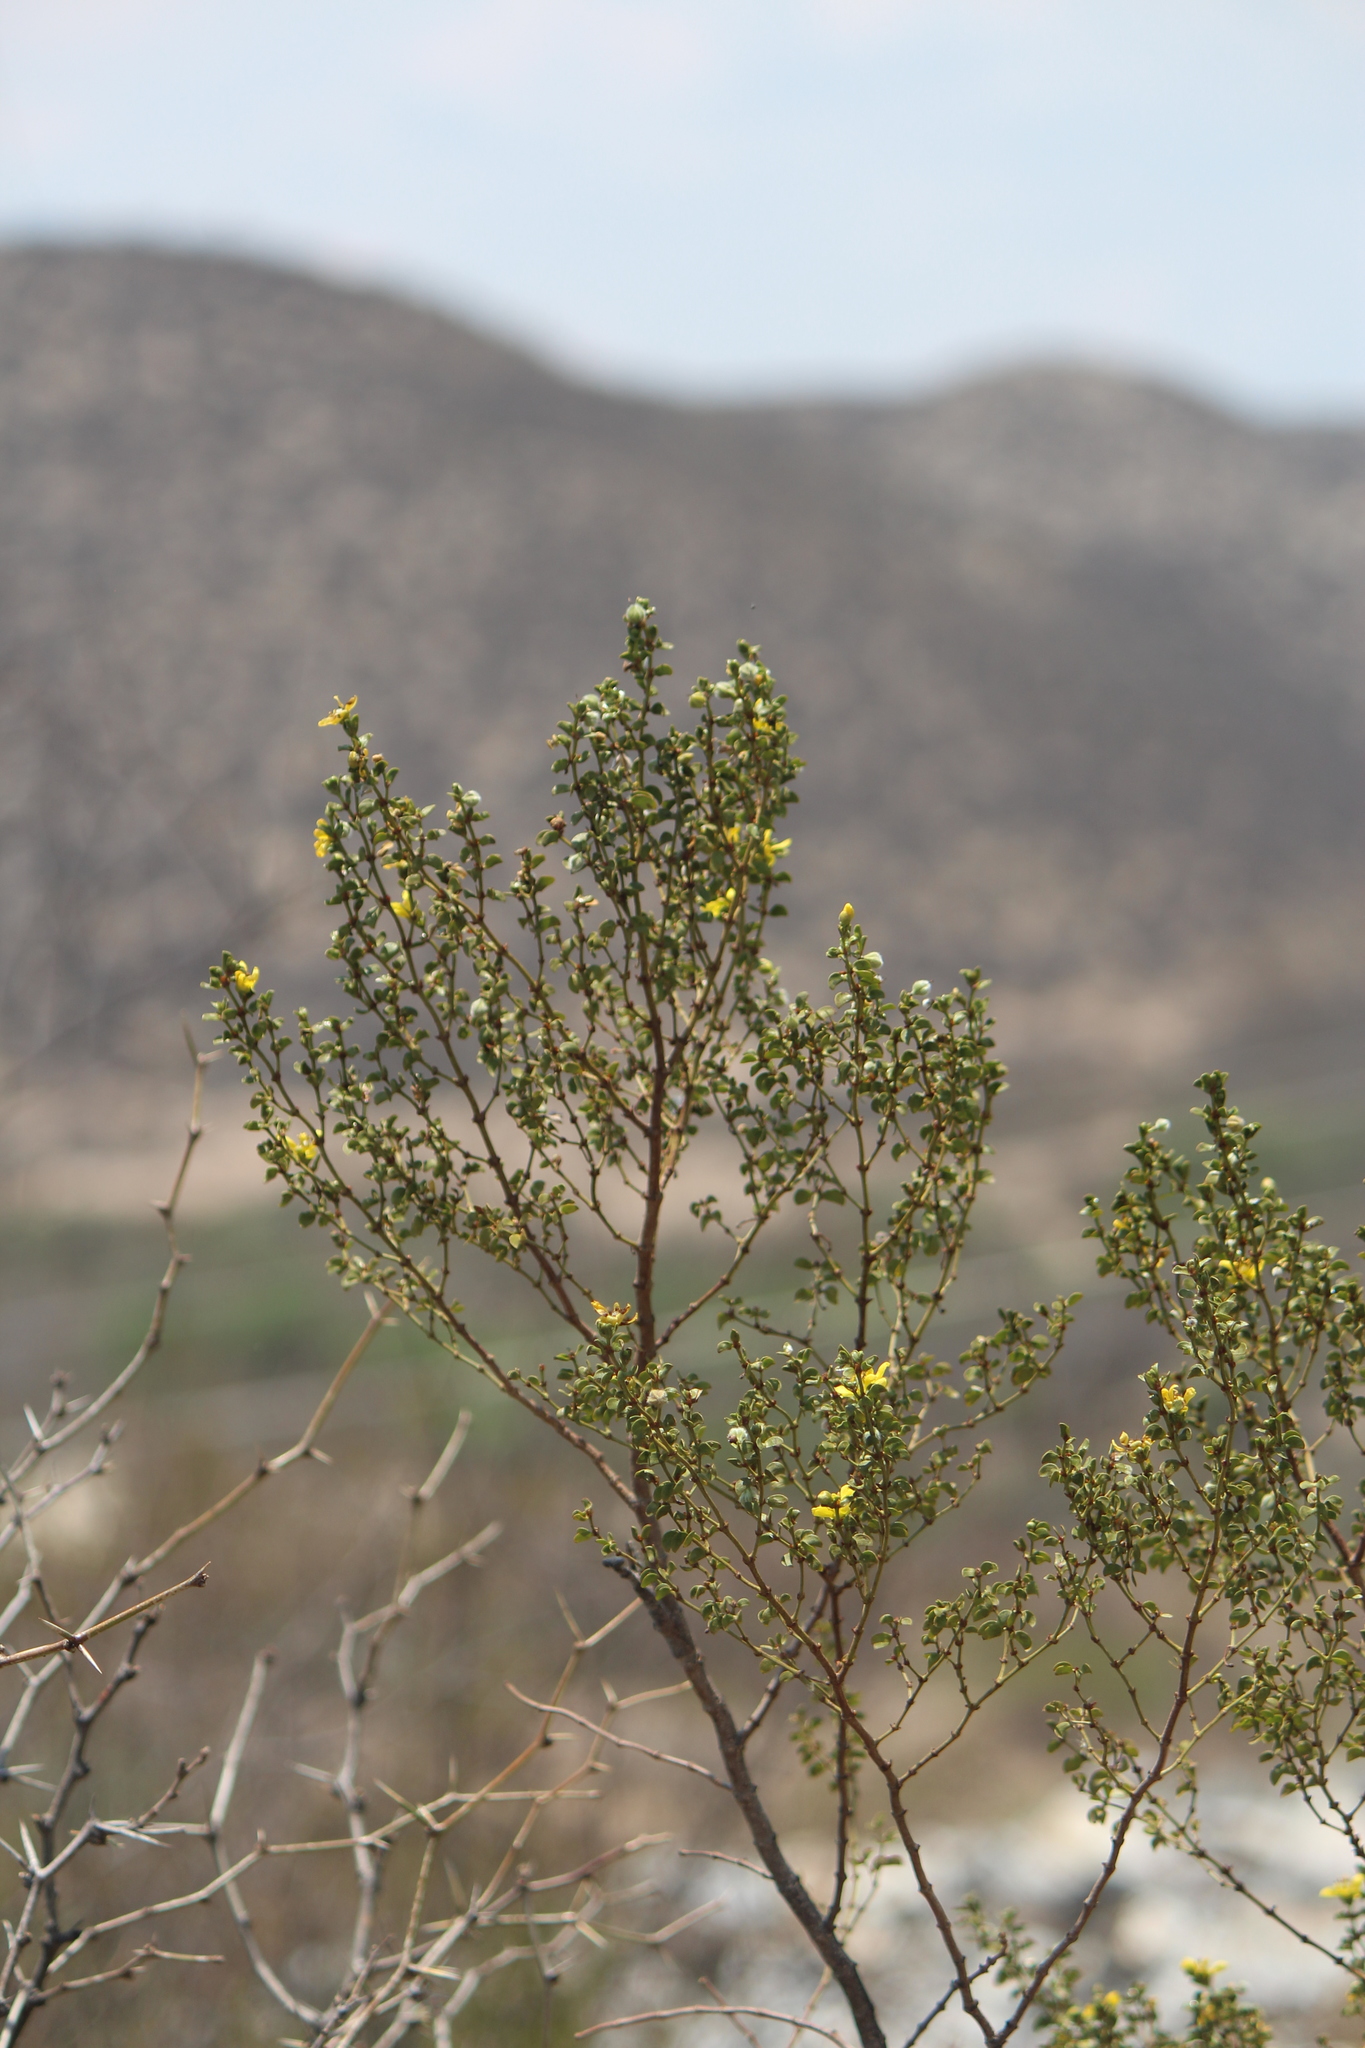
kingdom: Plantae
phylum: Tracheophyta
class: Magnoliopsida
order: Zygophyllales
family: Zygophyllaceae
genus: Larrea
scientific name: Larrea tridentata
